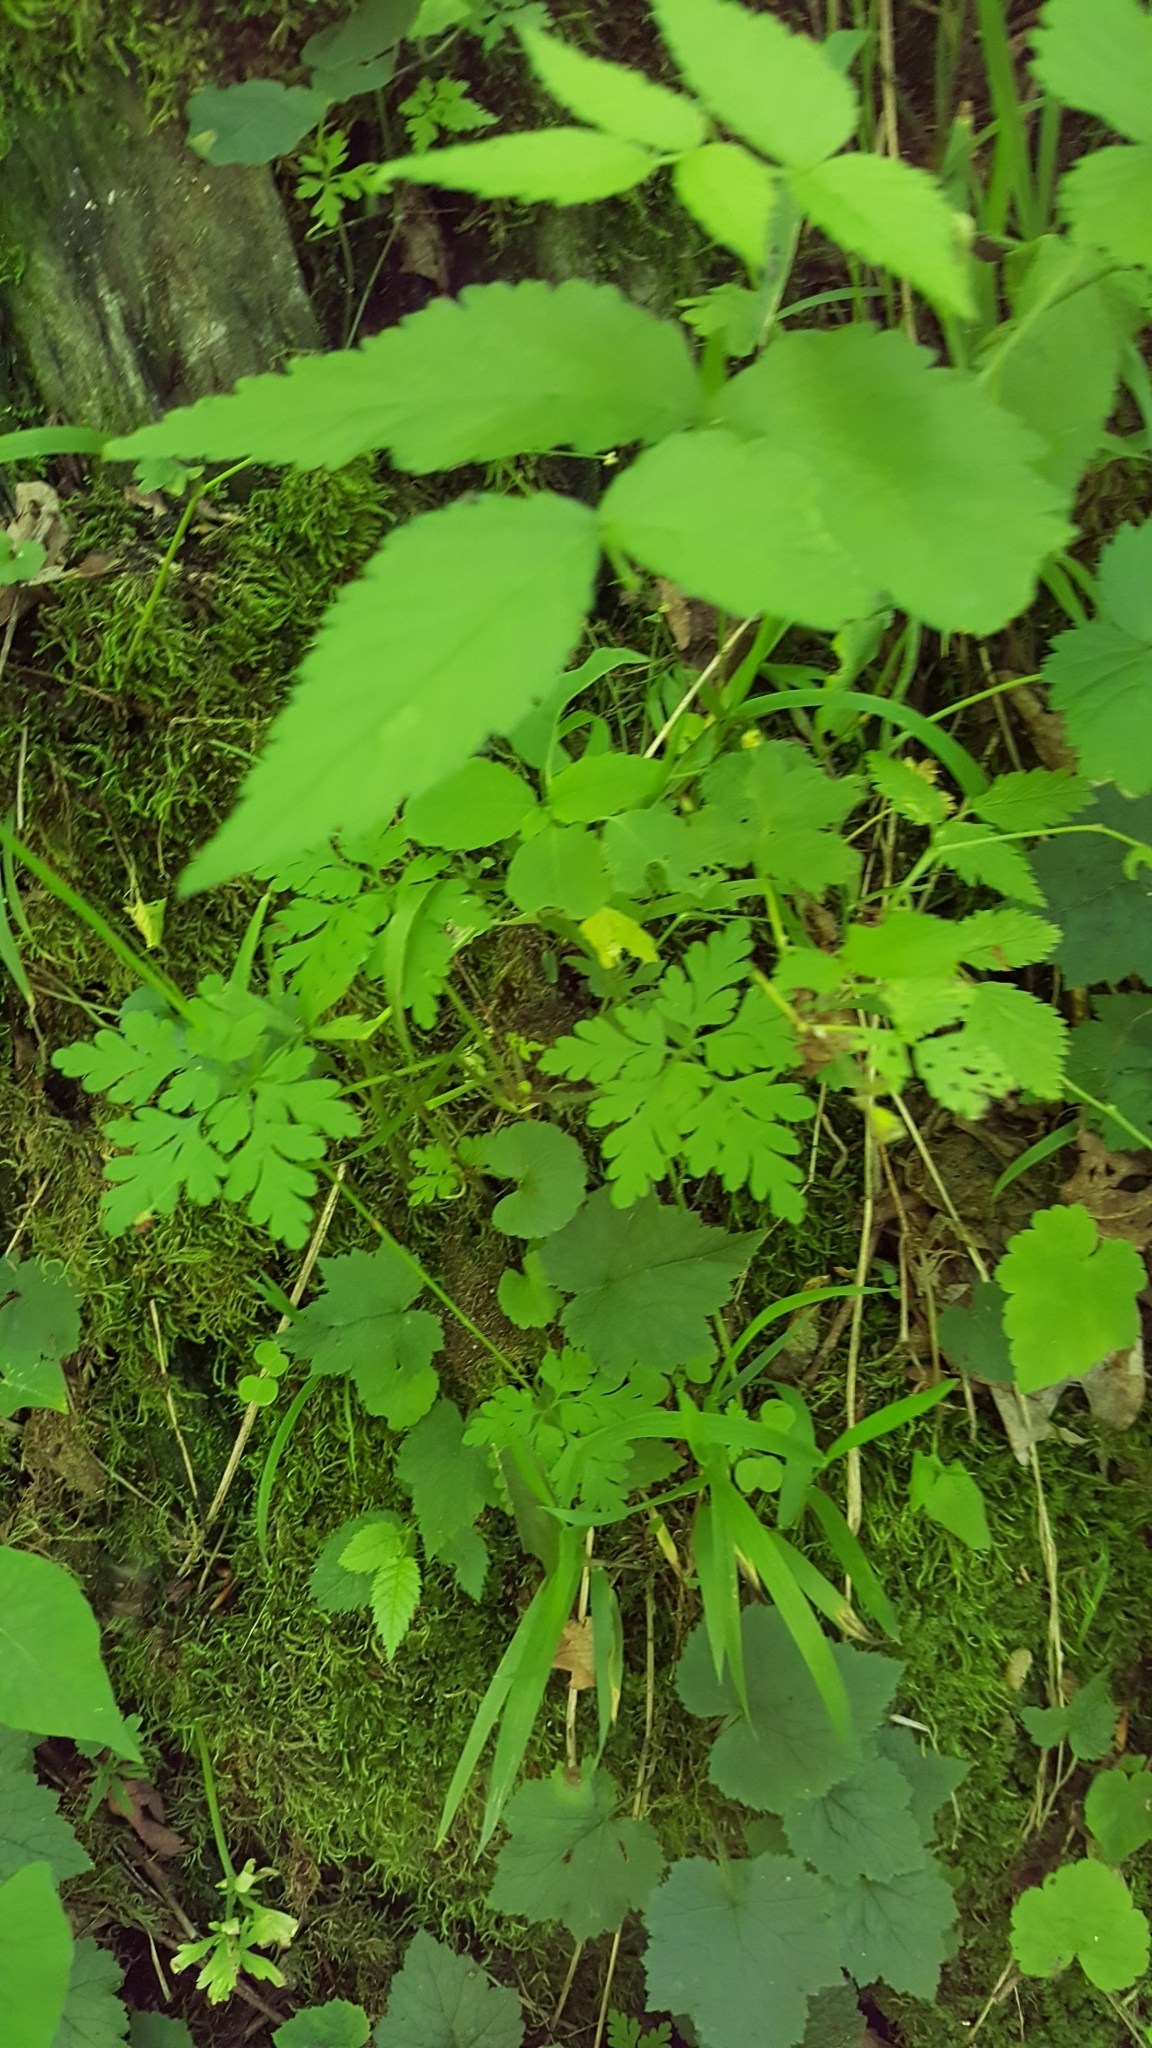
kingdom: Plantae
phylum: Tracheophyta
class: Magnoliopsida
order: Geraniales
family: Geraniaceae
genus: Geranium
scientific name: Geranium robertianum
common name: Herb-robert
